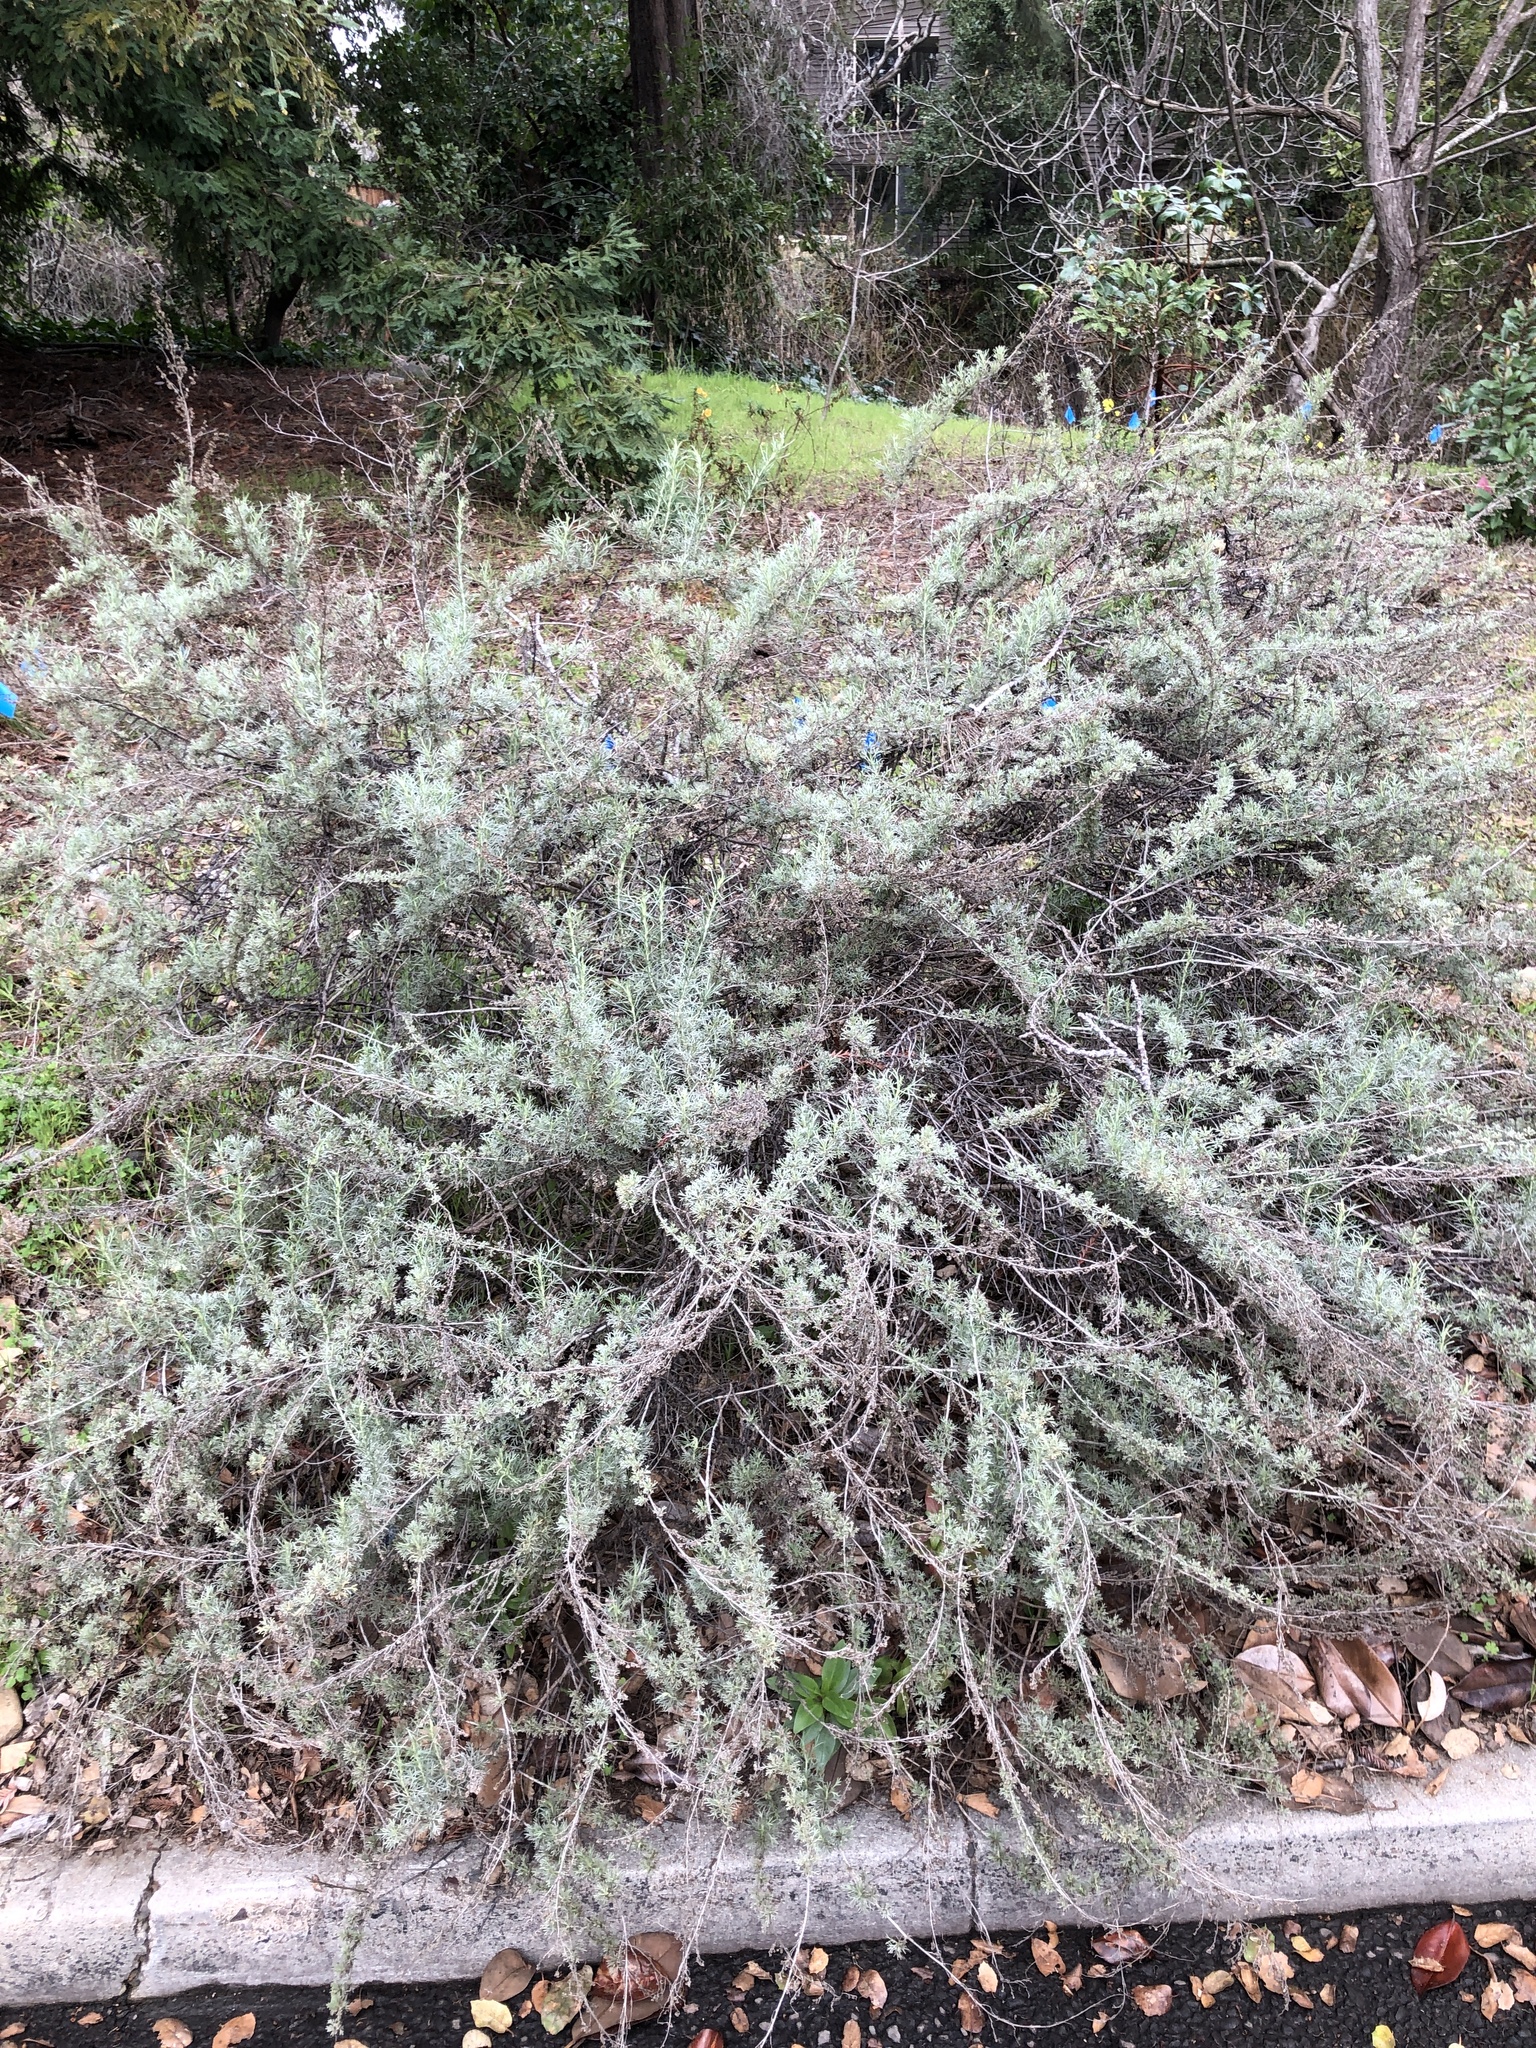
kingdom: Plantae
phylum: Tracheophyta
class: Magnoliopsida
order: Asterales
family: Asteraceae
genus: Artemisia
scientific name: Artemisia californica
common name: California sagebrush
